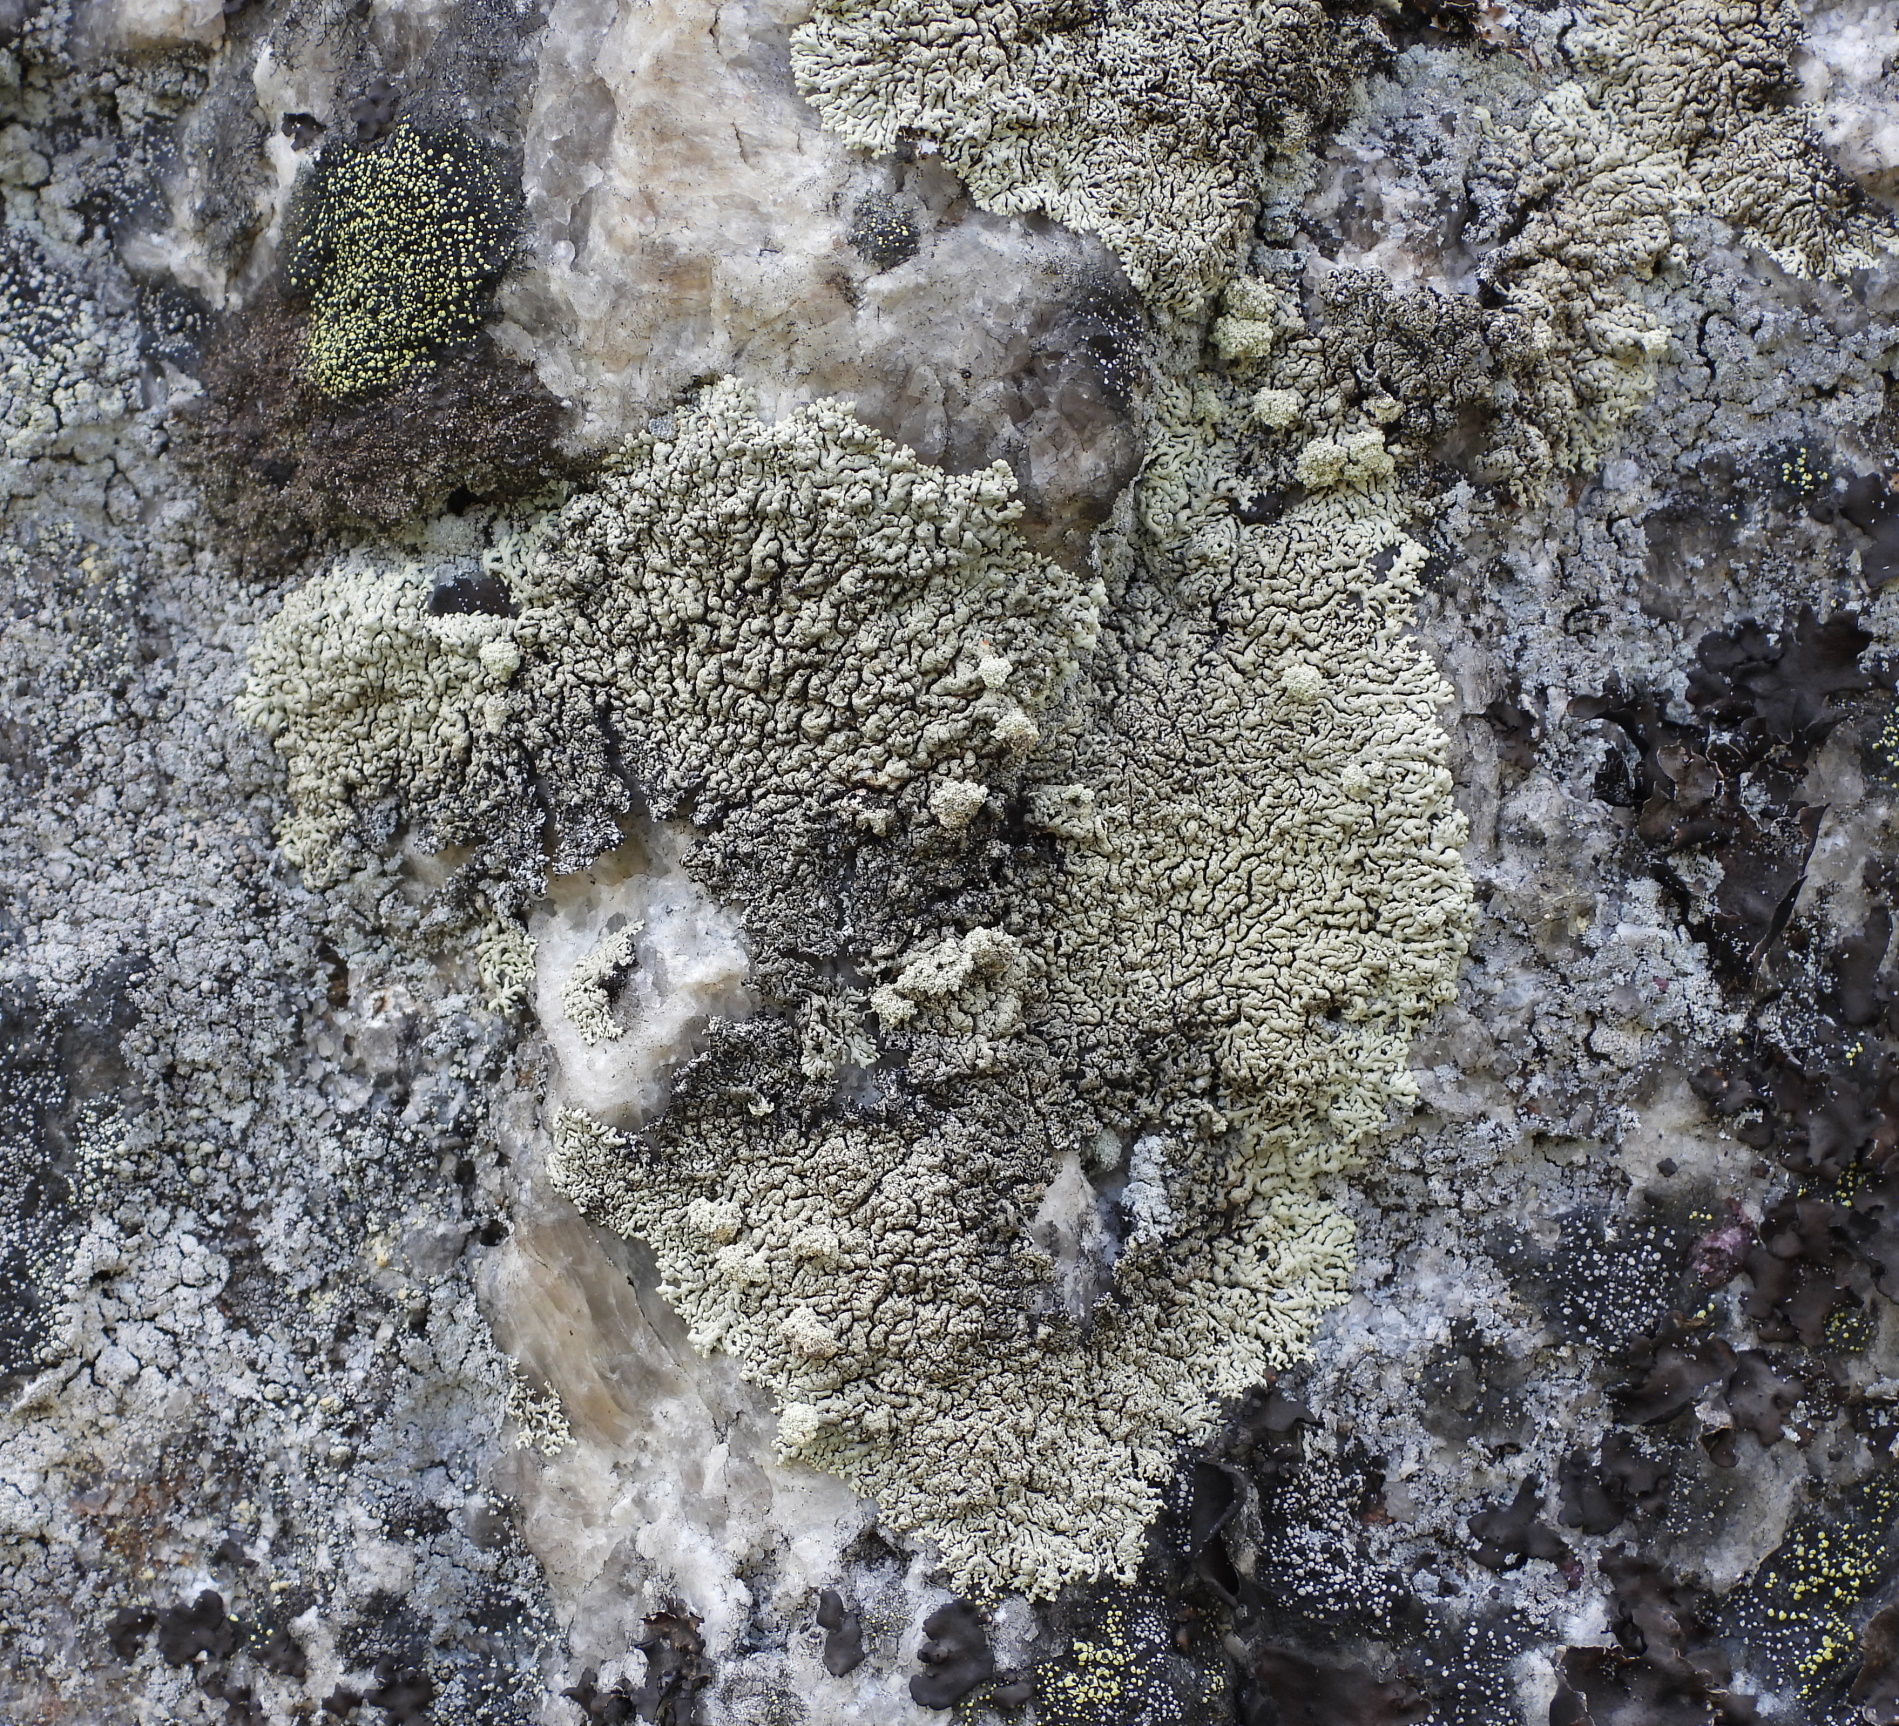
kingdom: Fungi
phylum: Ascomycota
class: Lecanoromycetes
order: Lecanorales
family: Parmeliaceae
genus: Arctoparmelia
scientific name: Arctoparmelia incurva
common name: Bent ring lichen
